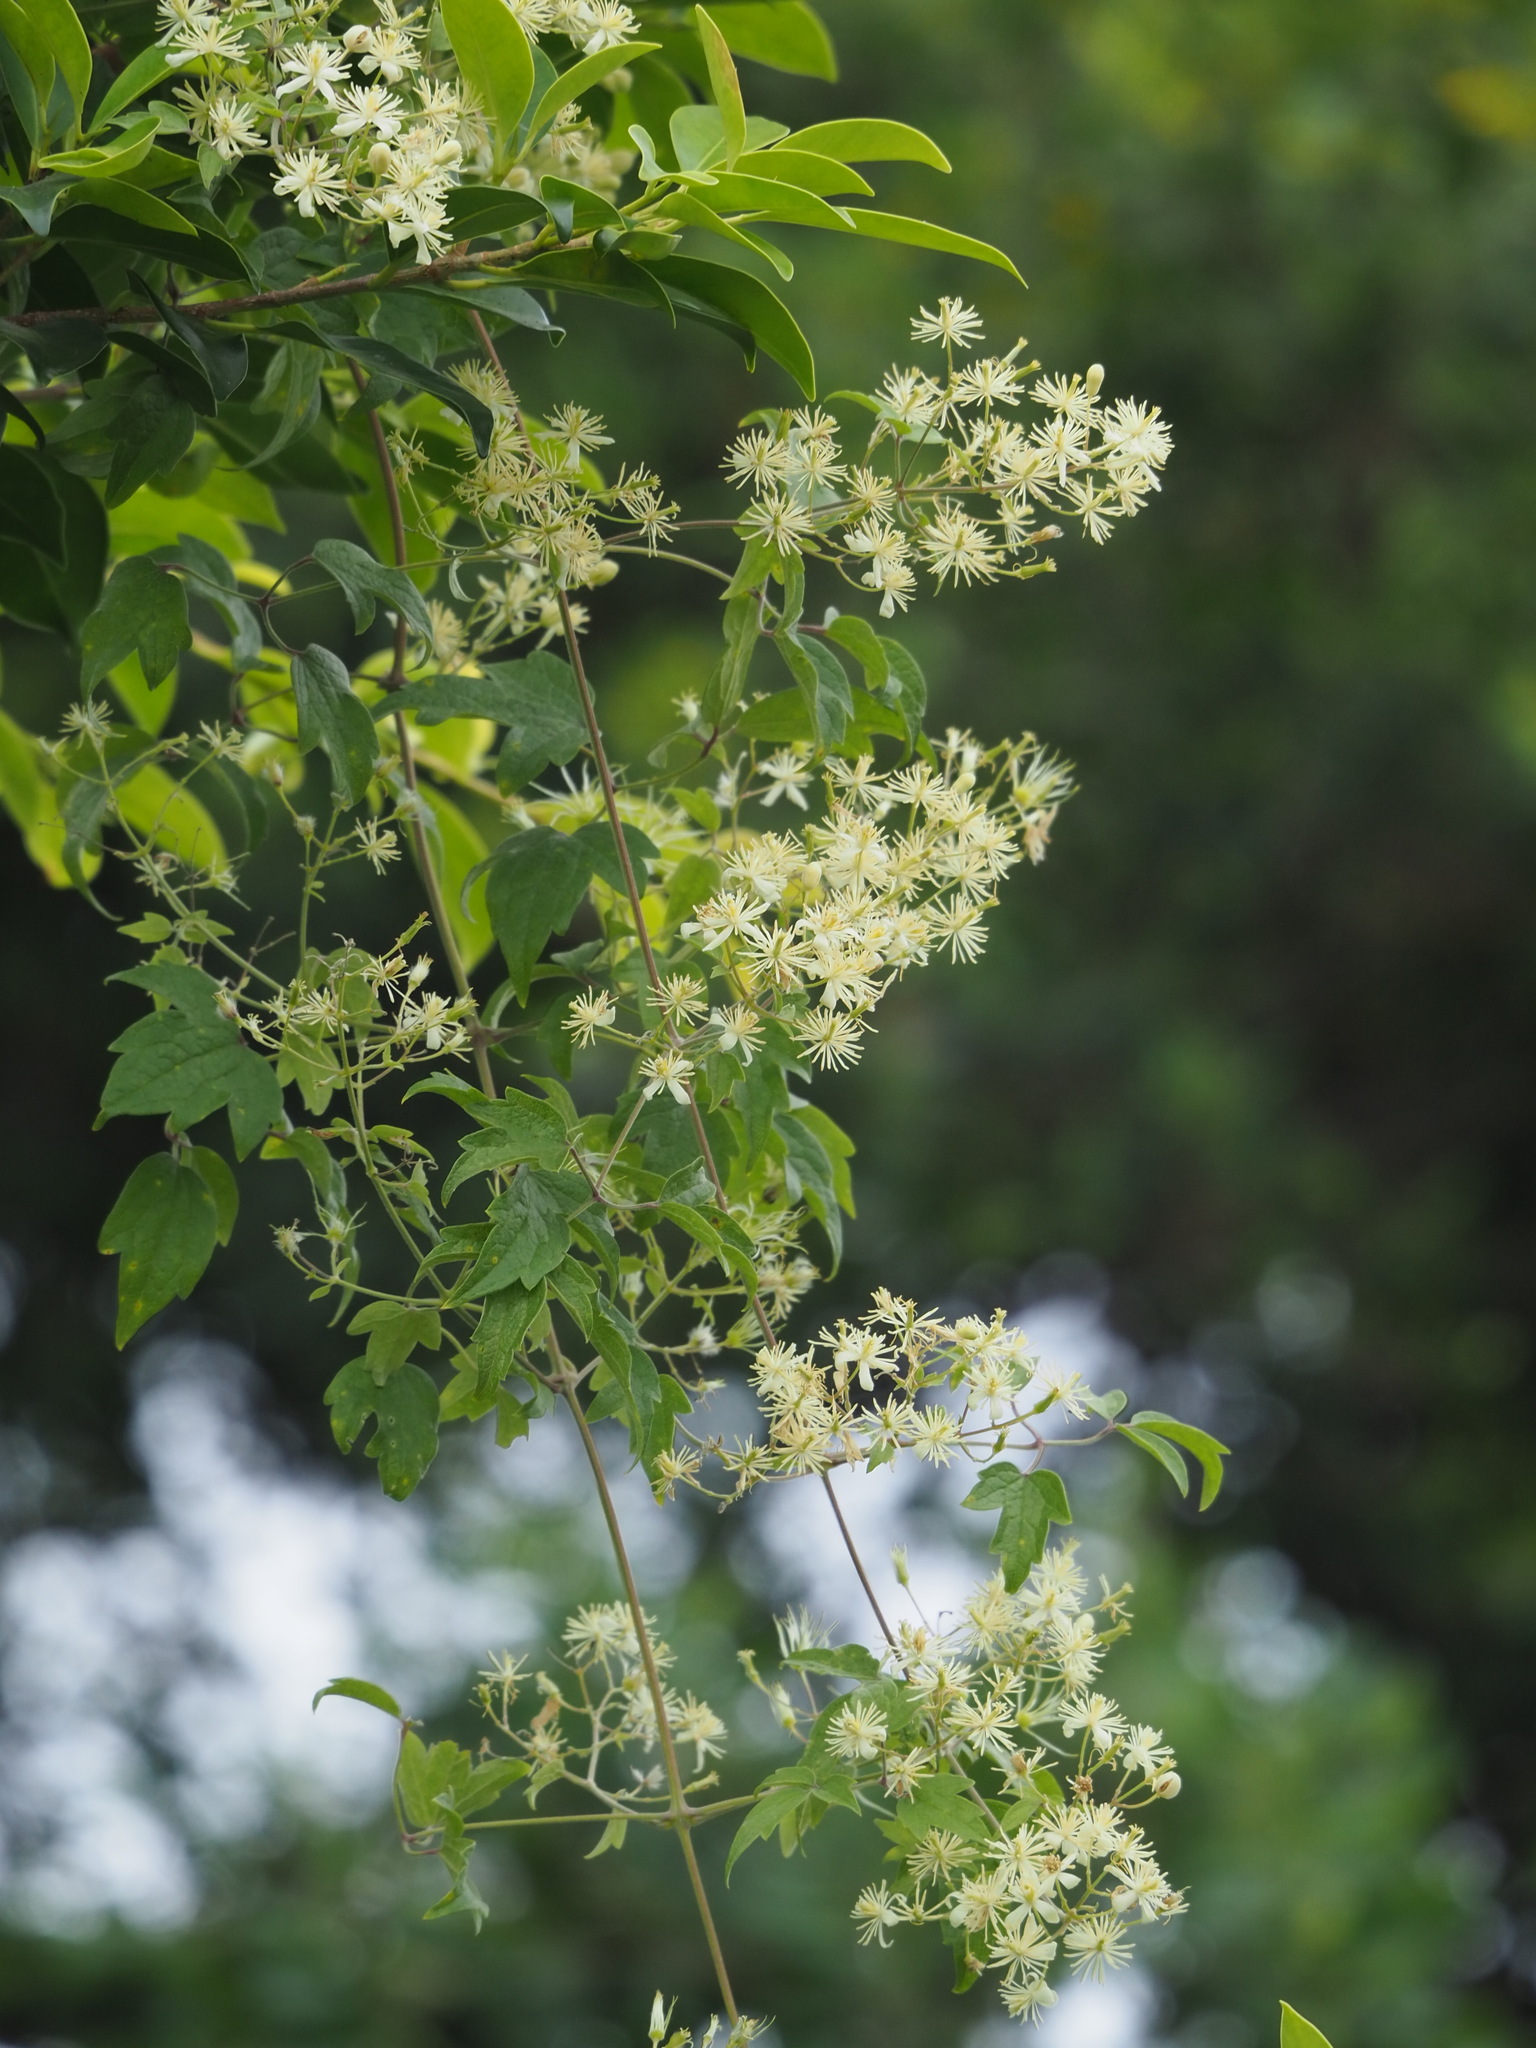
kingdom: Plantae
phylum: Tracheophyta
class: Magnoliopsida
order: Ranunculales
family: Ranunculaceae
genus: Clematis
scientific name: Clematis grata
